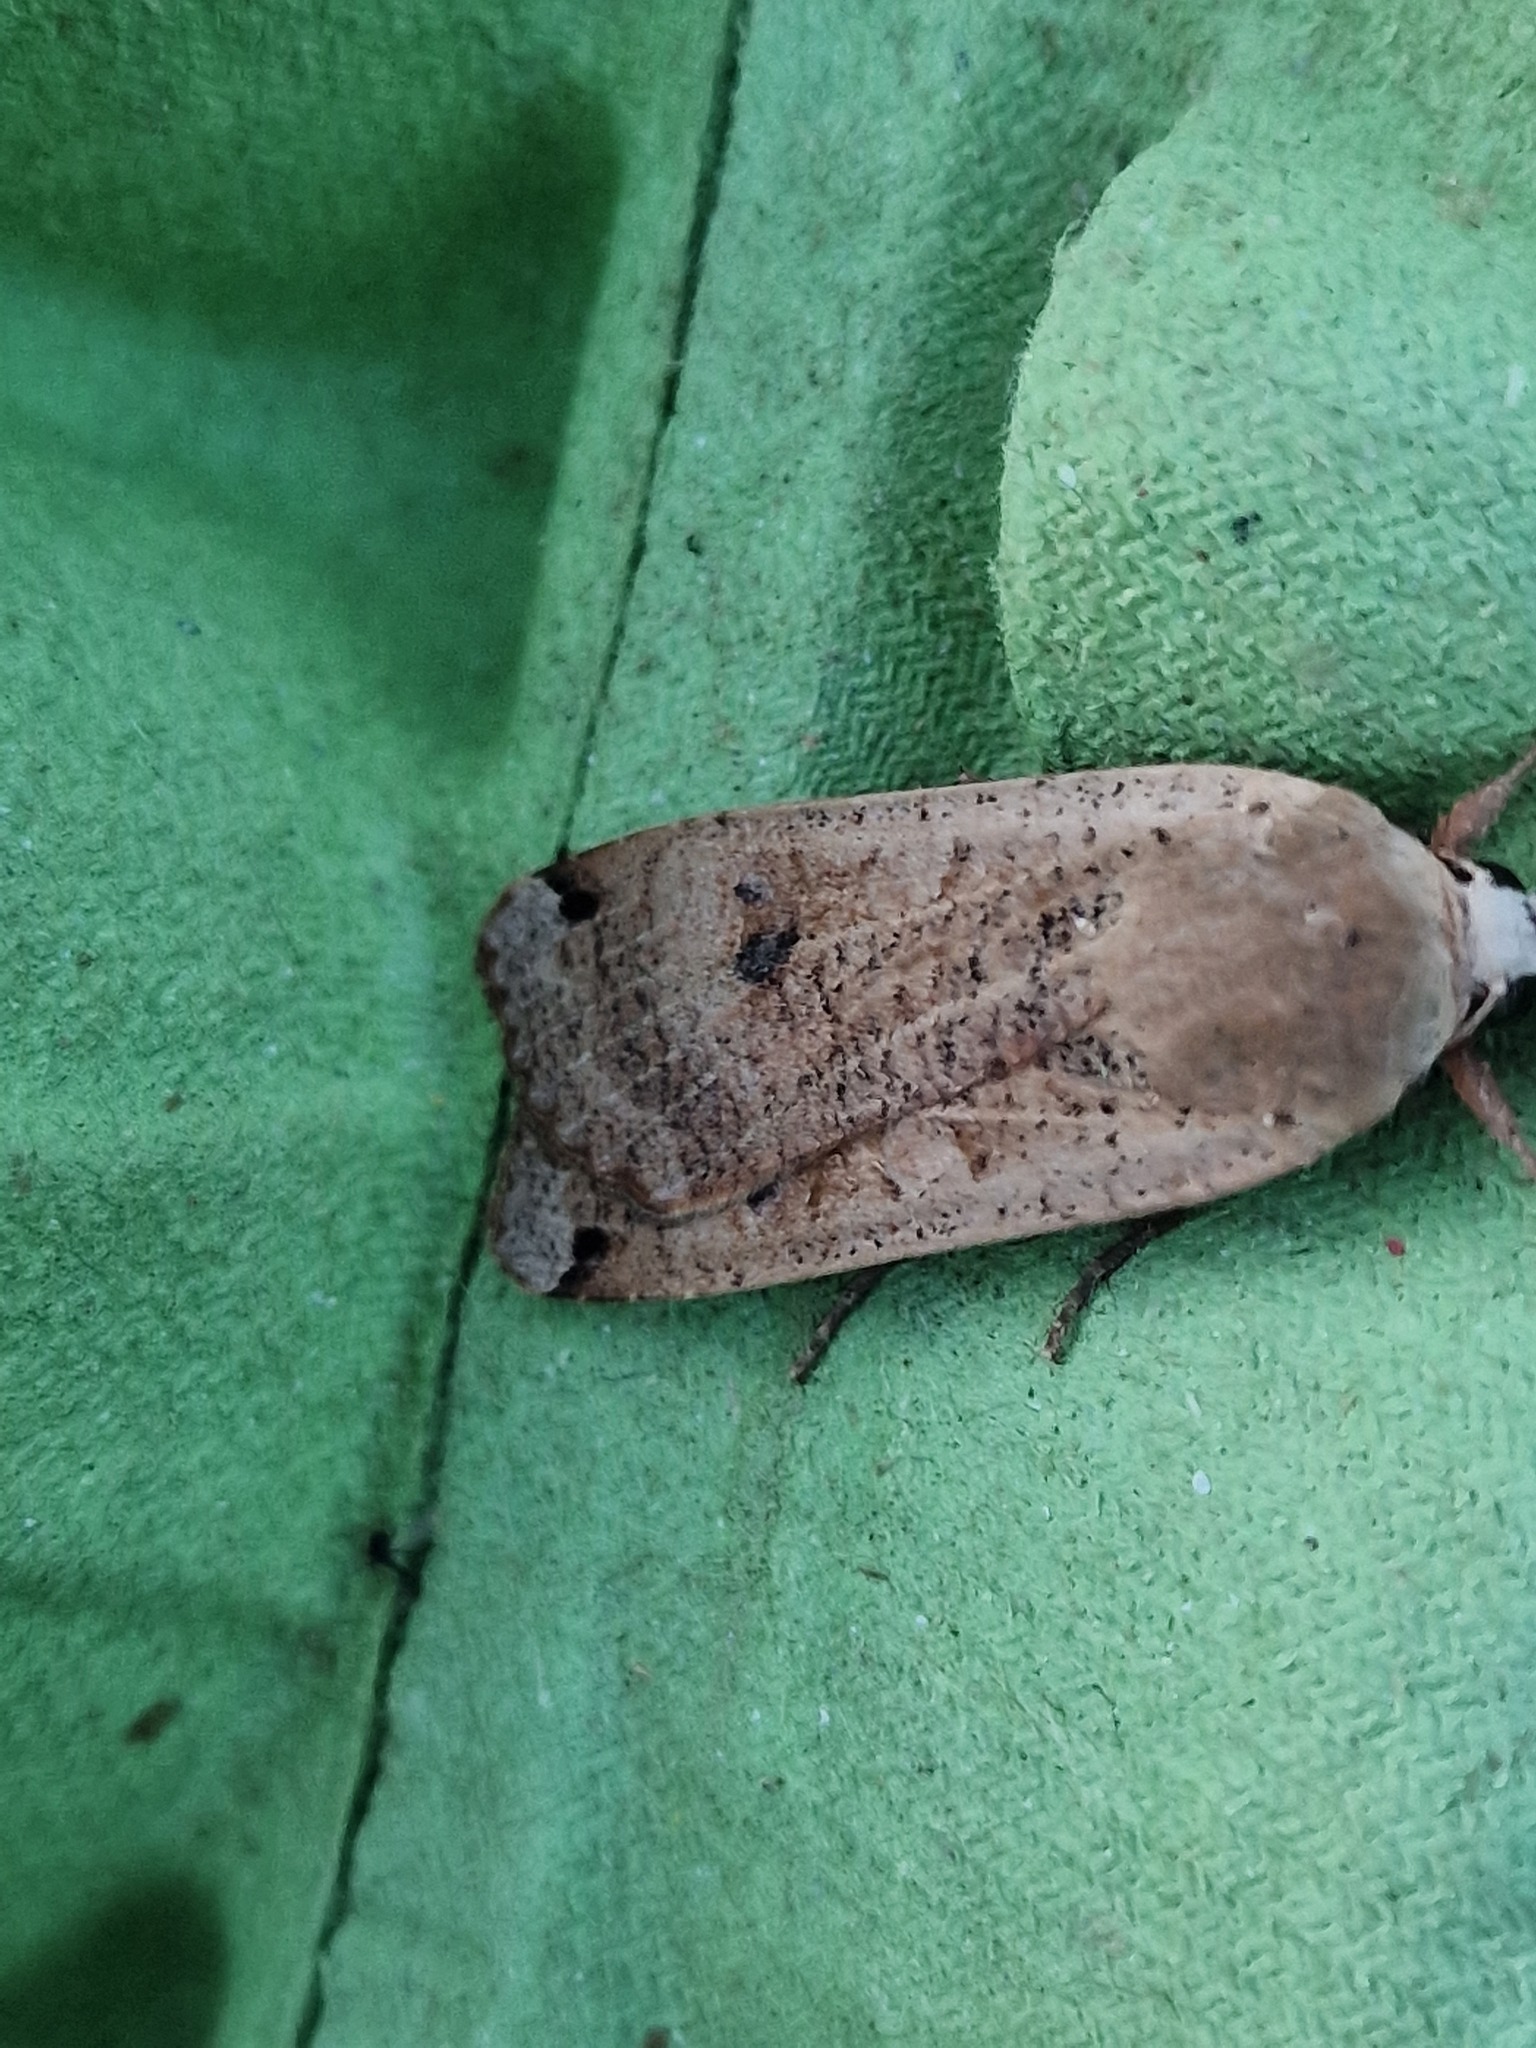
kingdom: Animalia
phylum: Arthropoda
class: Insecta
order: Lepidoptera
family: Noctuidae
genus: Noctua
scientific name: Noctua pronuba
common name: Large yellow underwing
